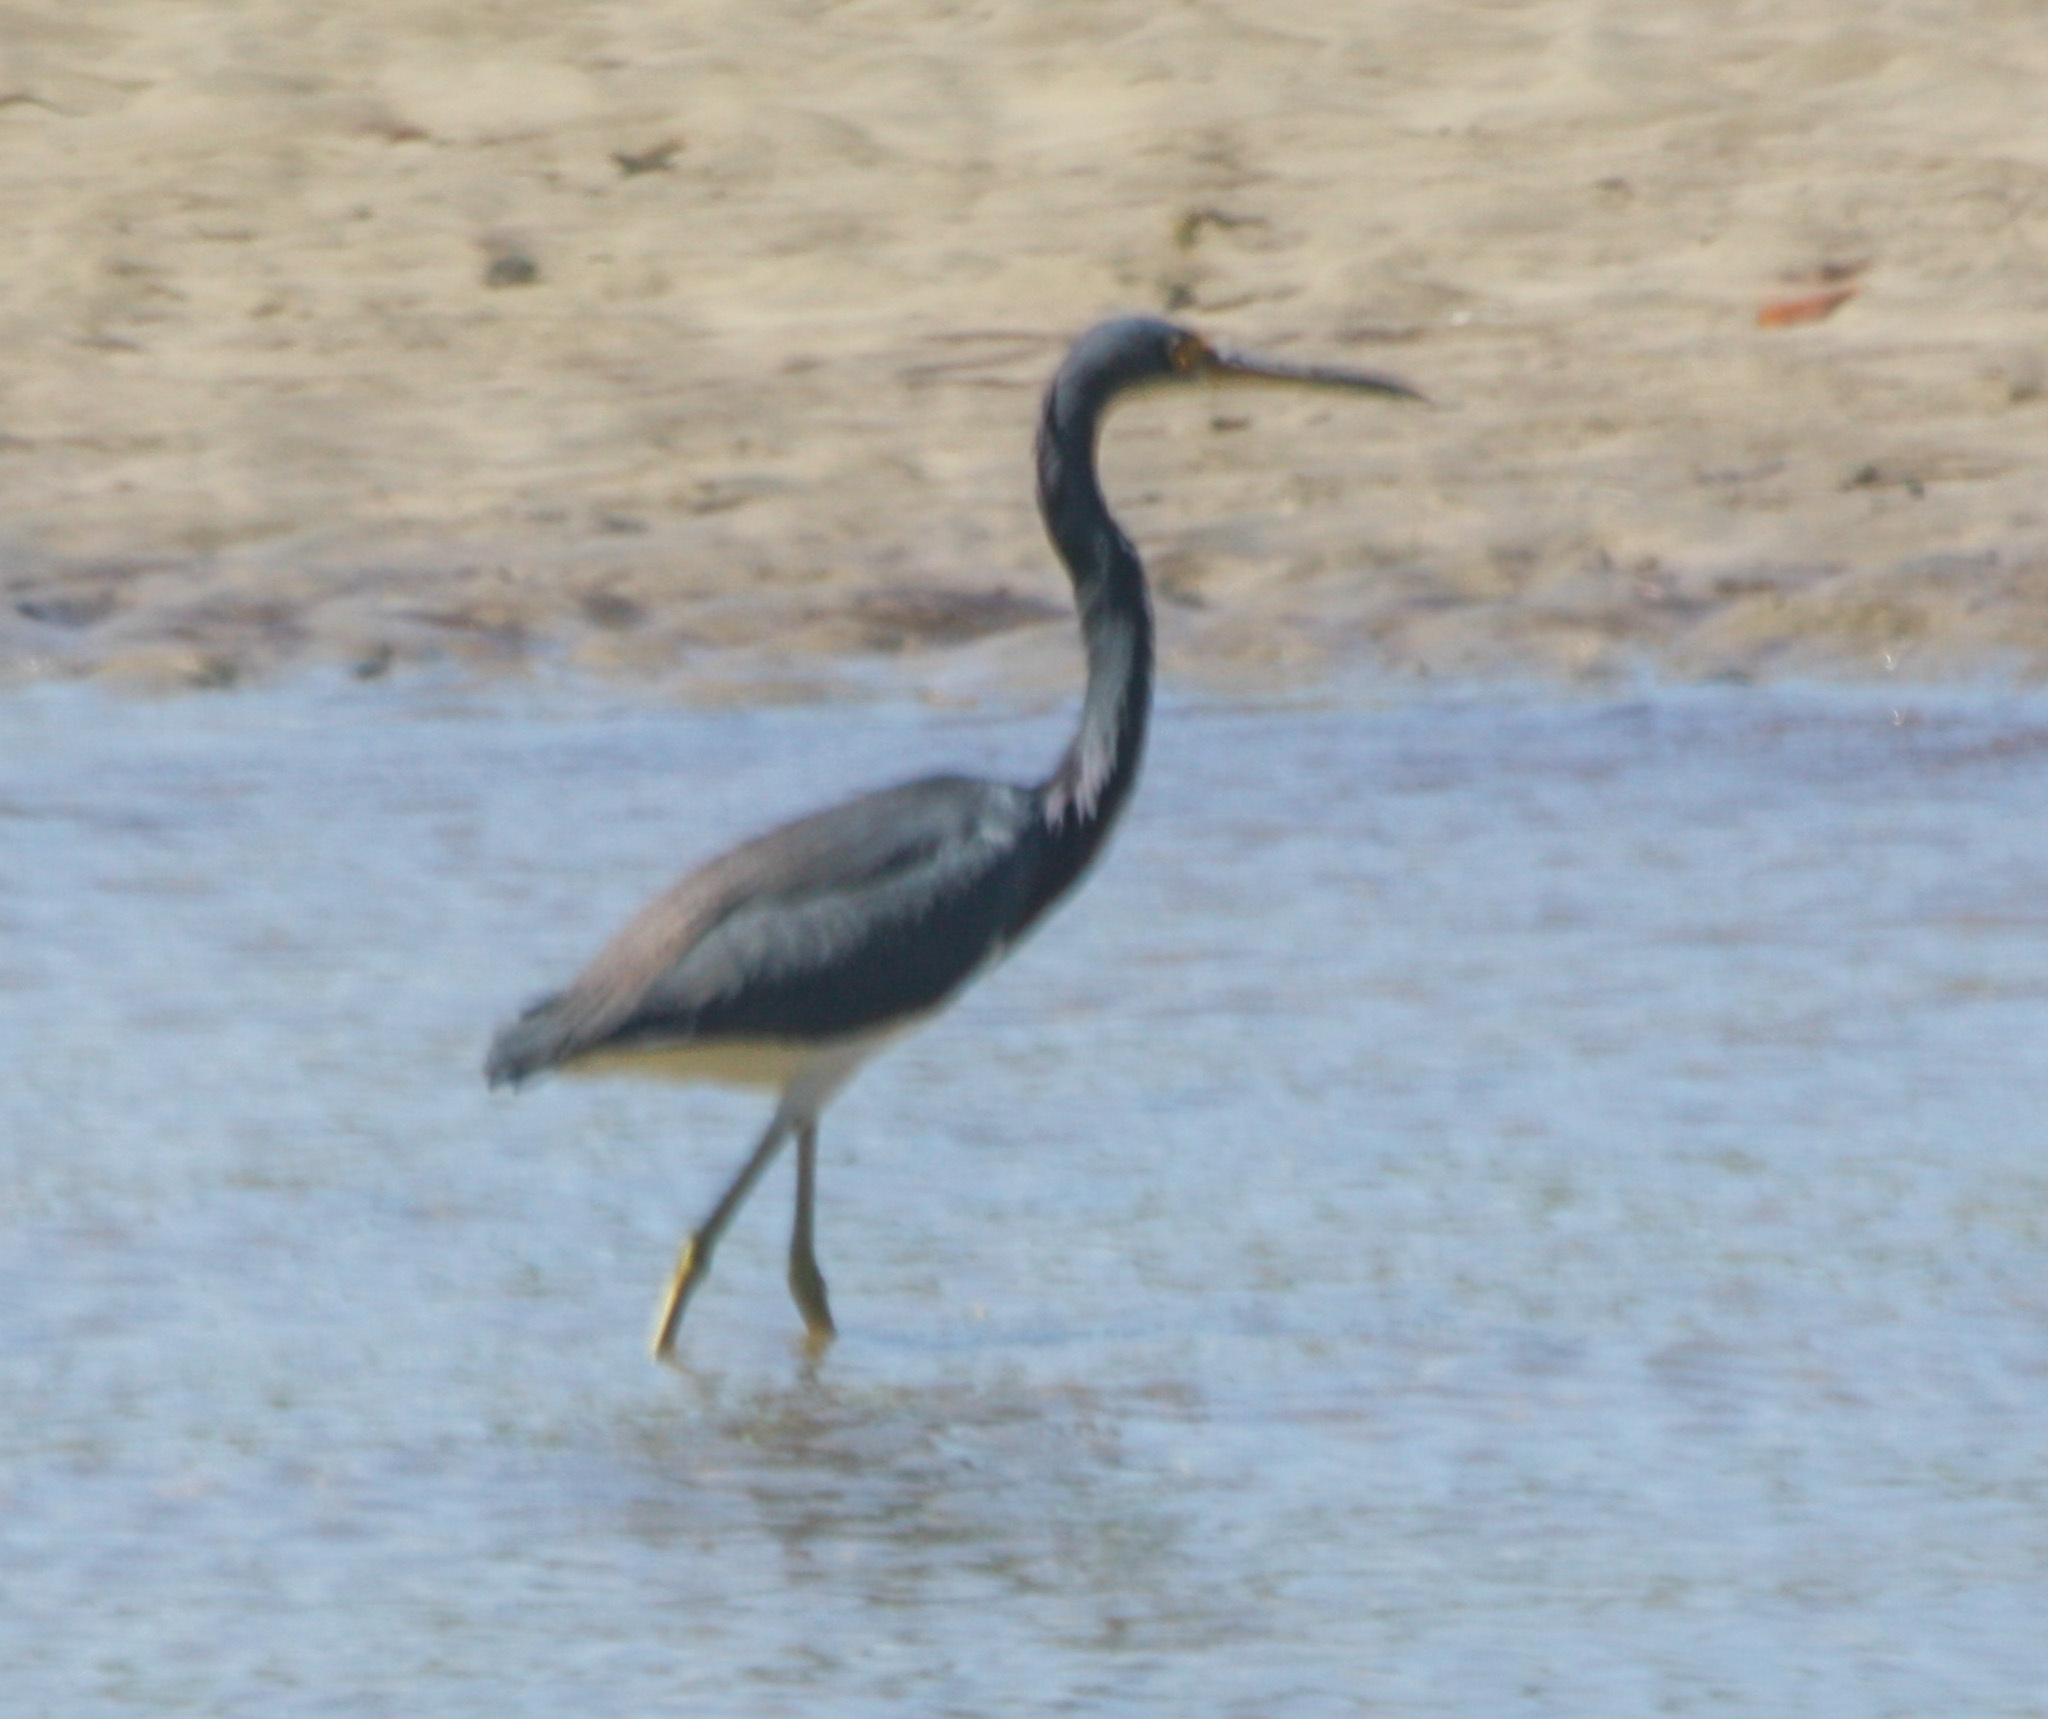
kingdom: Animalia
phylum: Chordata
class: Aves
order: Pelecaniformes
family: Ardeidae
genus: Egretta
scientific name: Egretta tricolor
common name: Tricolored heron
